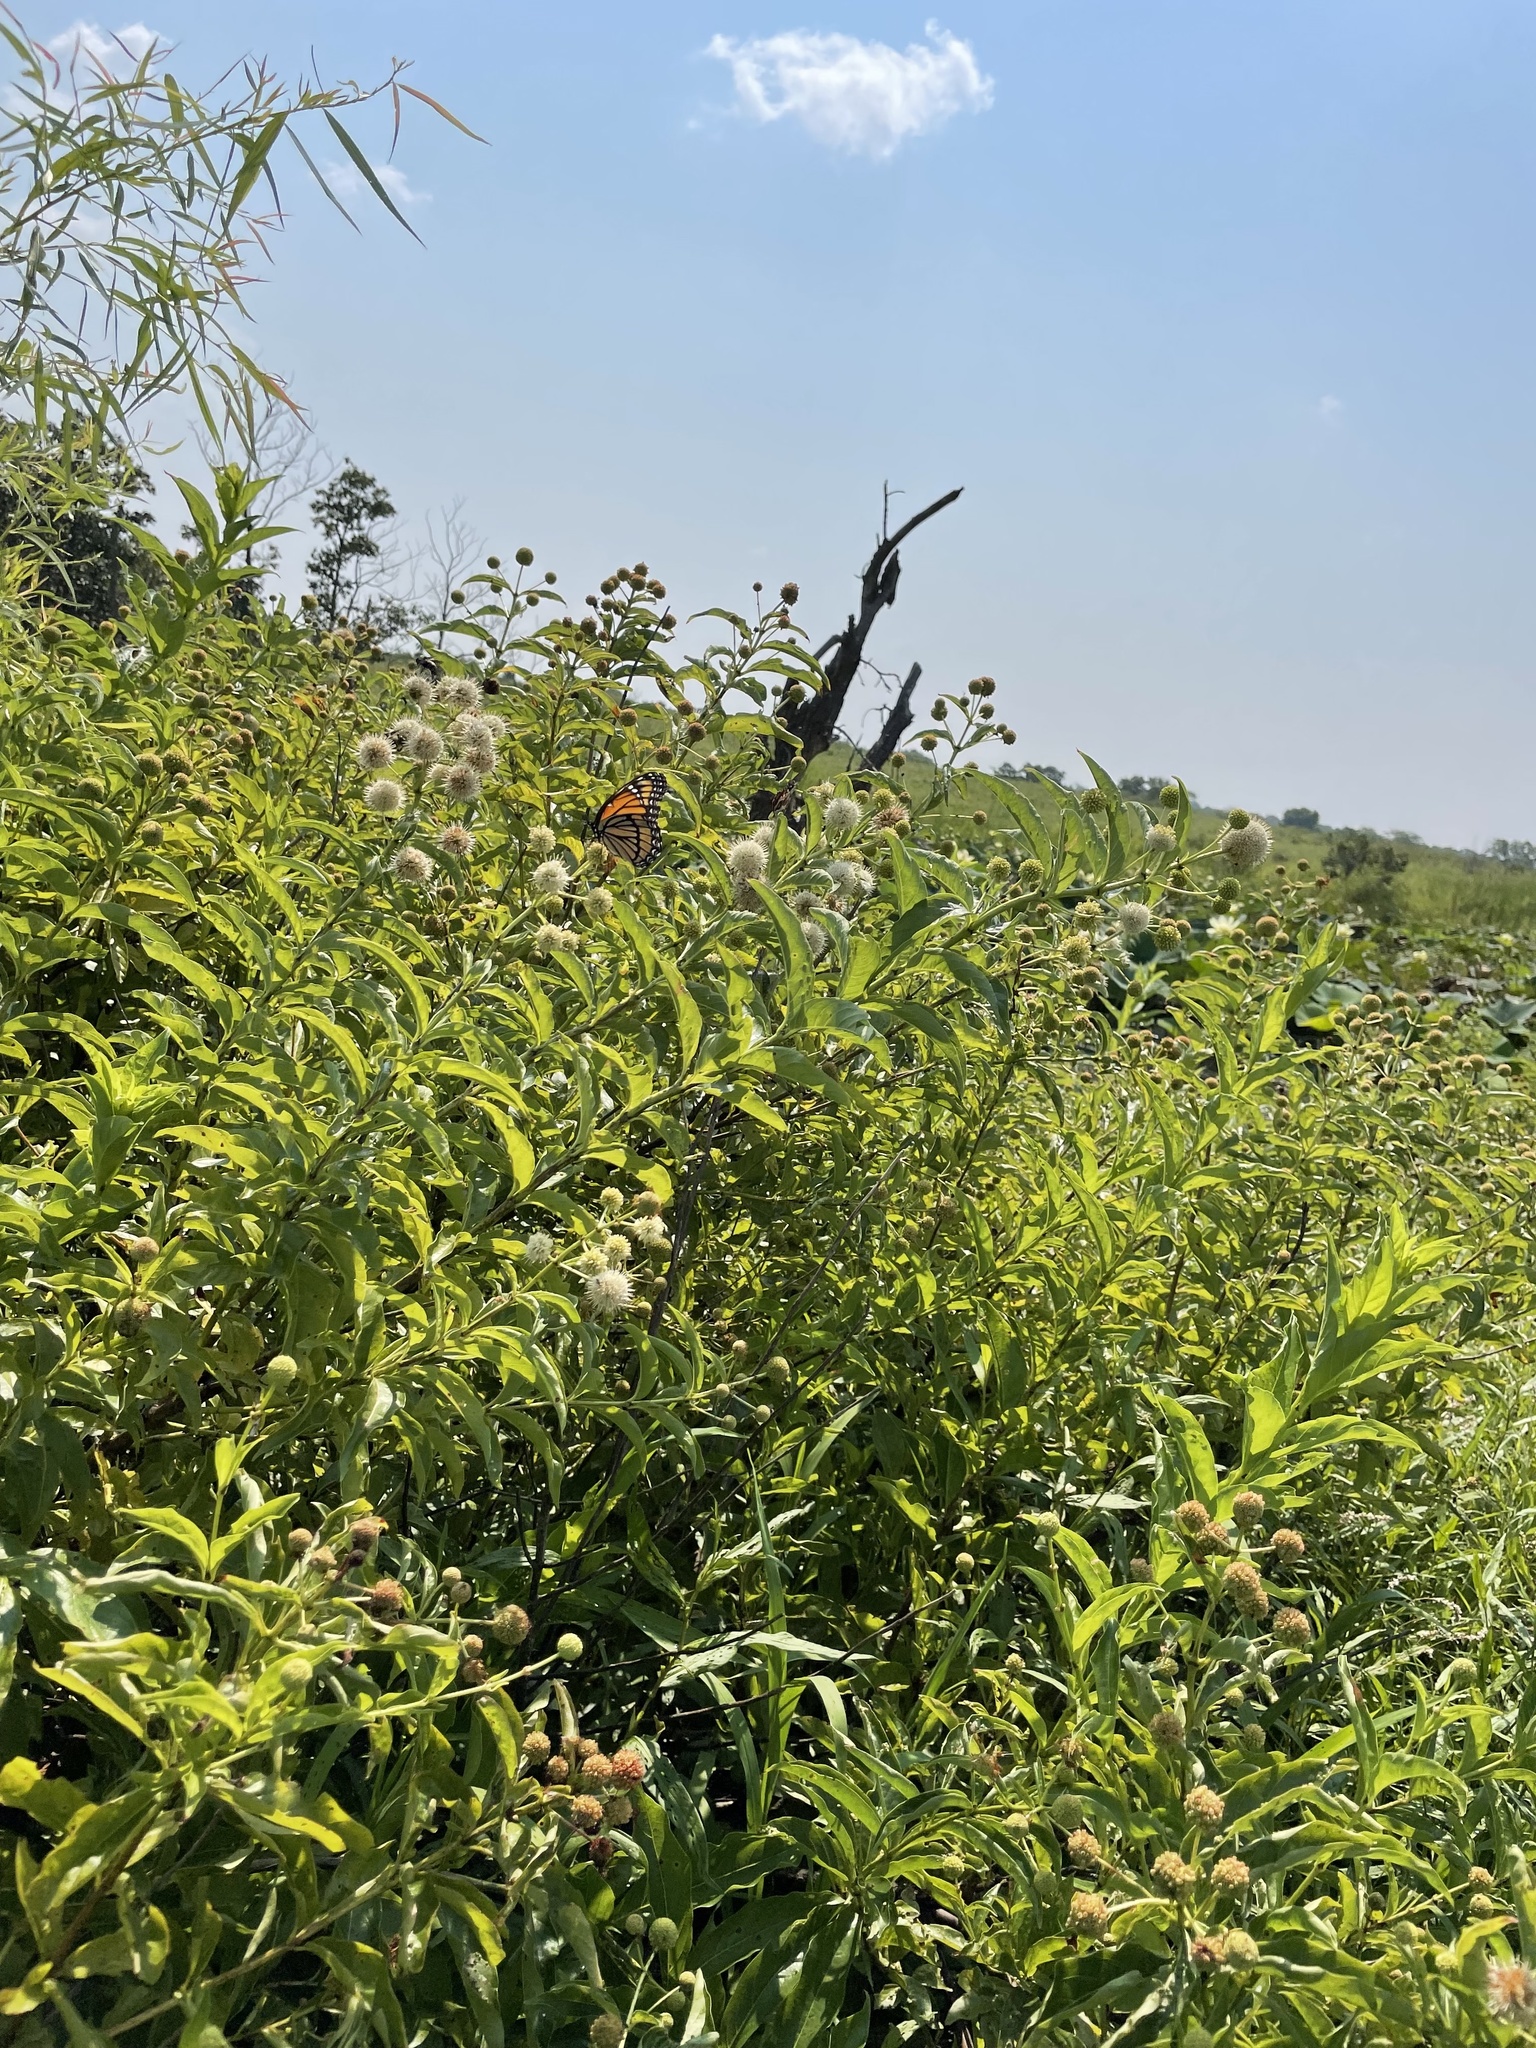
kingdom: Animalia
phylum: Arthropoda
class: Insecta
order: Lepidoptera
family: Nymphalidae
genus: Limenitis
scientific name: Limenitis archippus
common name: Viceroy
